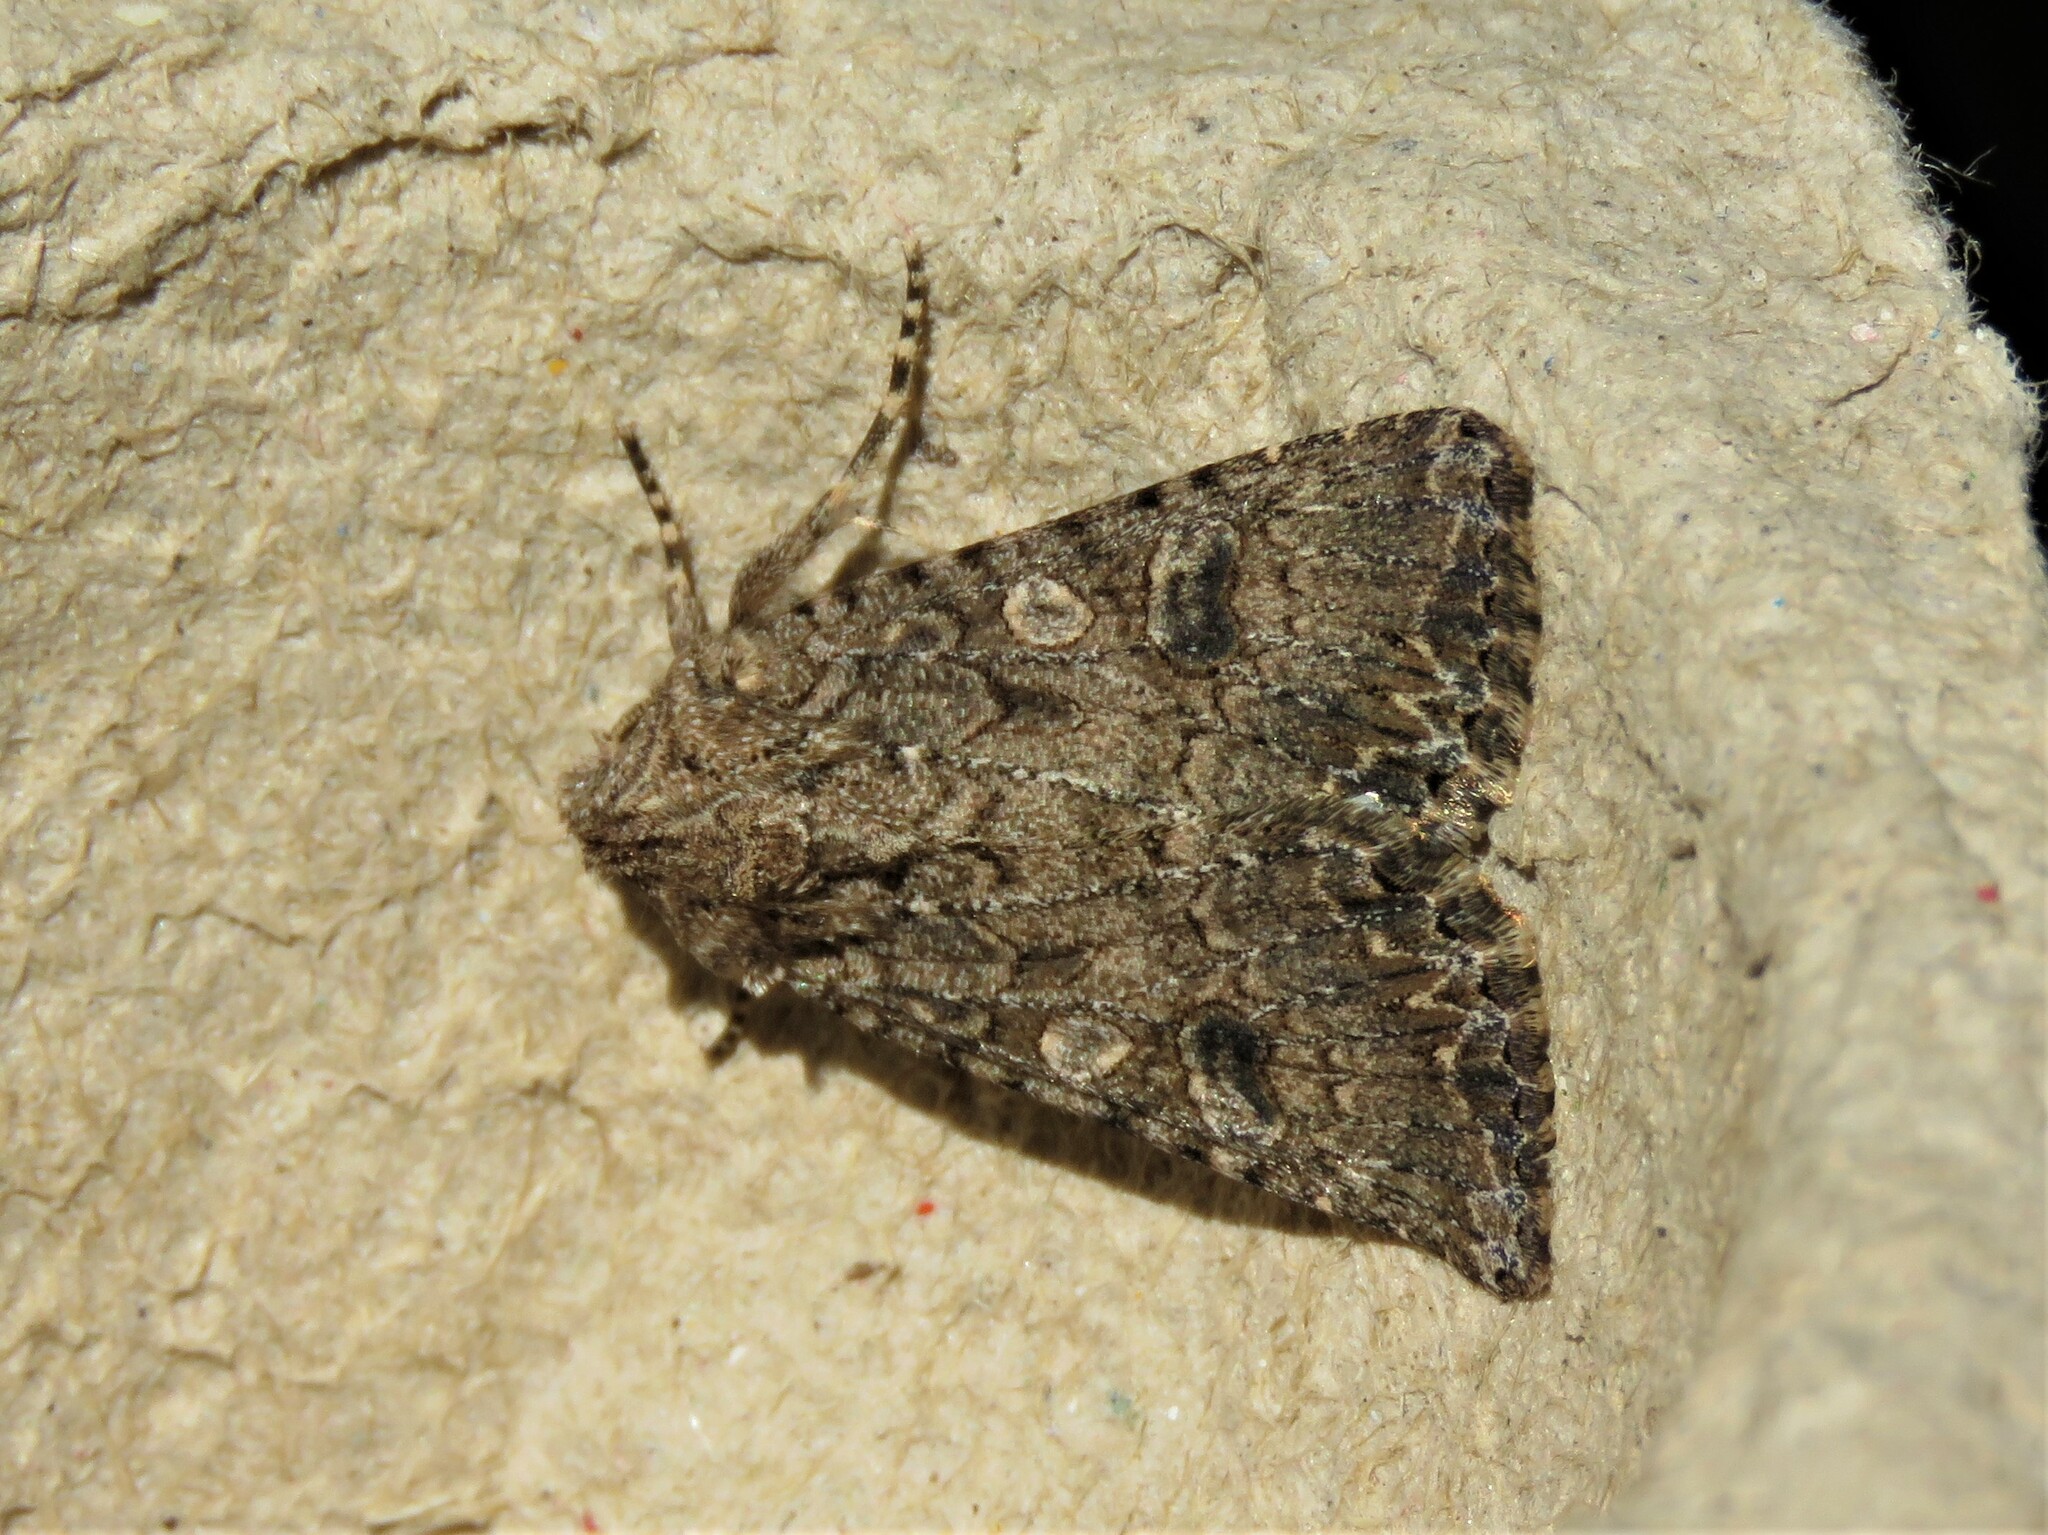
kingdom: Animalia
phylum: Arthropoda
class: Insecta
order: Lepidoptera
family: Noctuidae
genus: Anarta
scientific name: Anarta trifolii
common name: Clover cutworm moth
